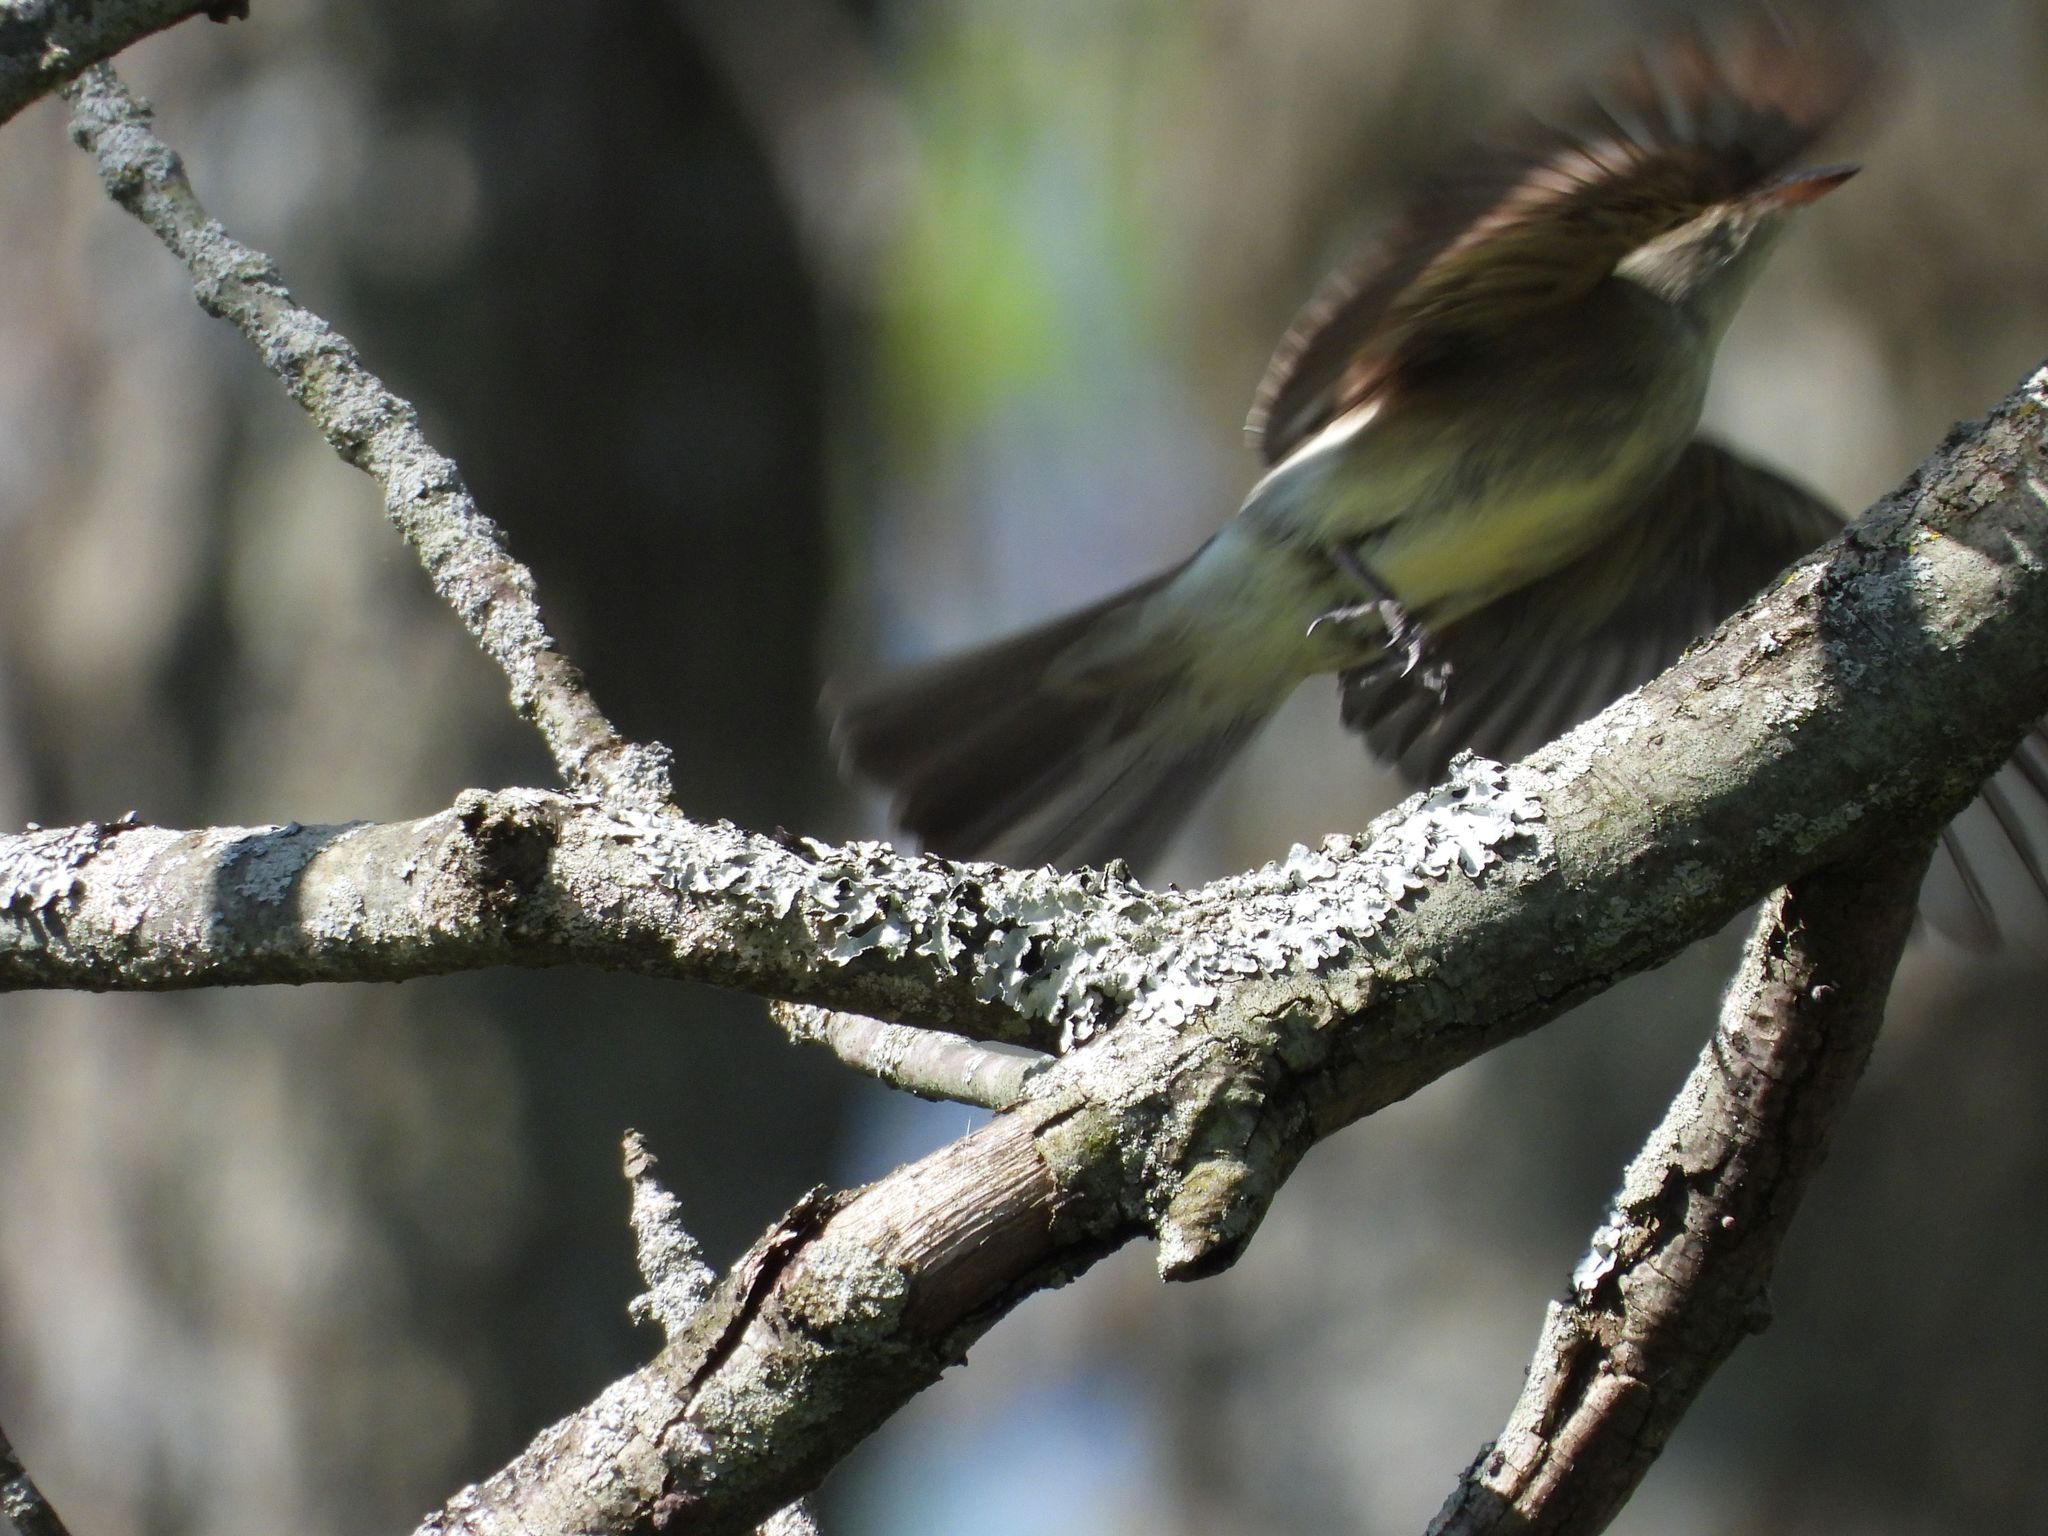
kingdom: Animalia
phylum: Chordata
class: Aves
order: Passeriformes
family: Tyrannidae
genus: Contopus
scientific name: Contopus virens
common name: Eastern wood-pewee
